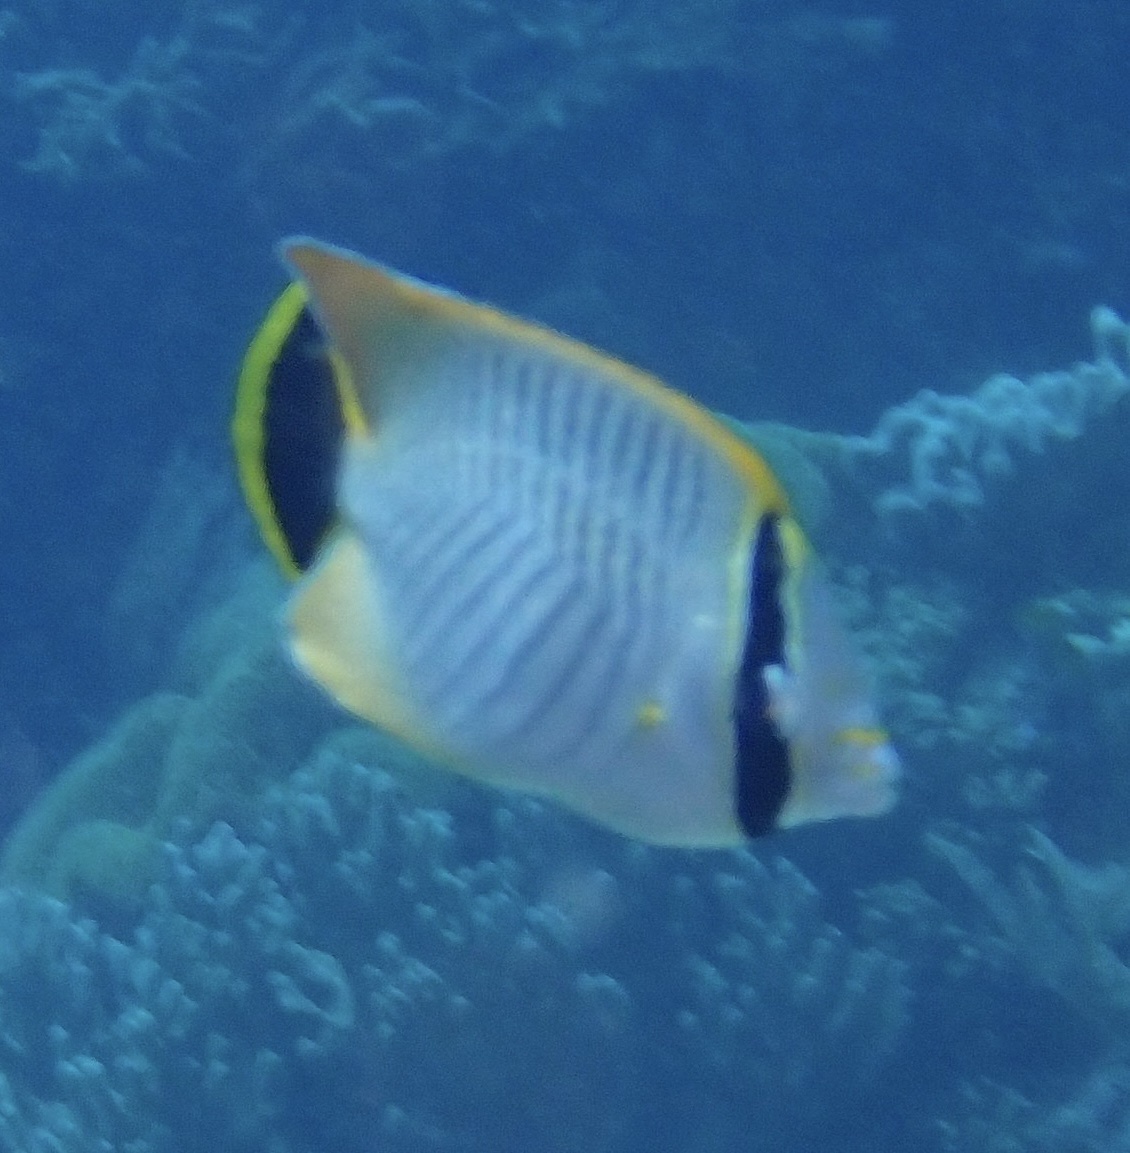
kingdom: Animalia
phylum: Chordata
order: Perciformes
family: Chaetodontidae
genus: Chaetodon
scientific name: Chaetodon trifascialis
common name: Chevroned butterflyfish
